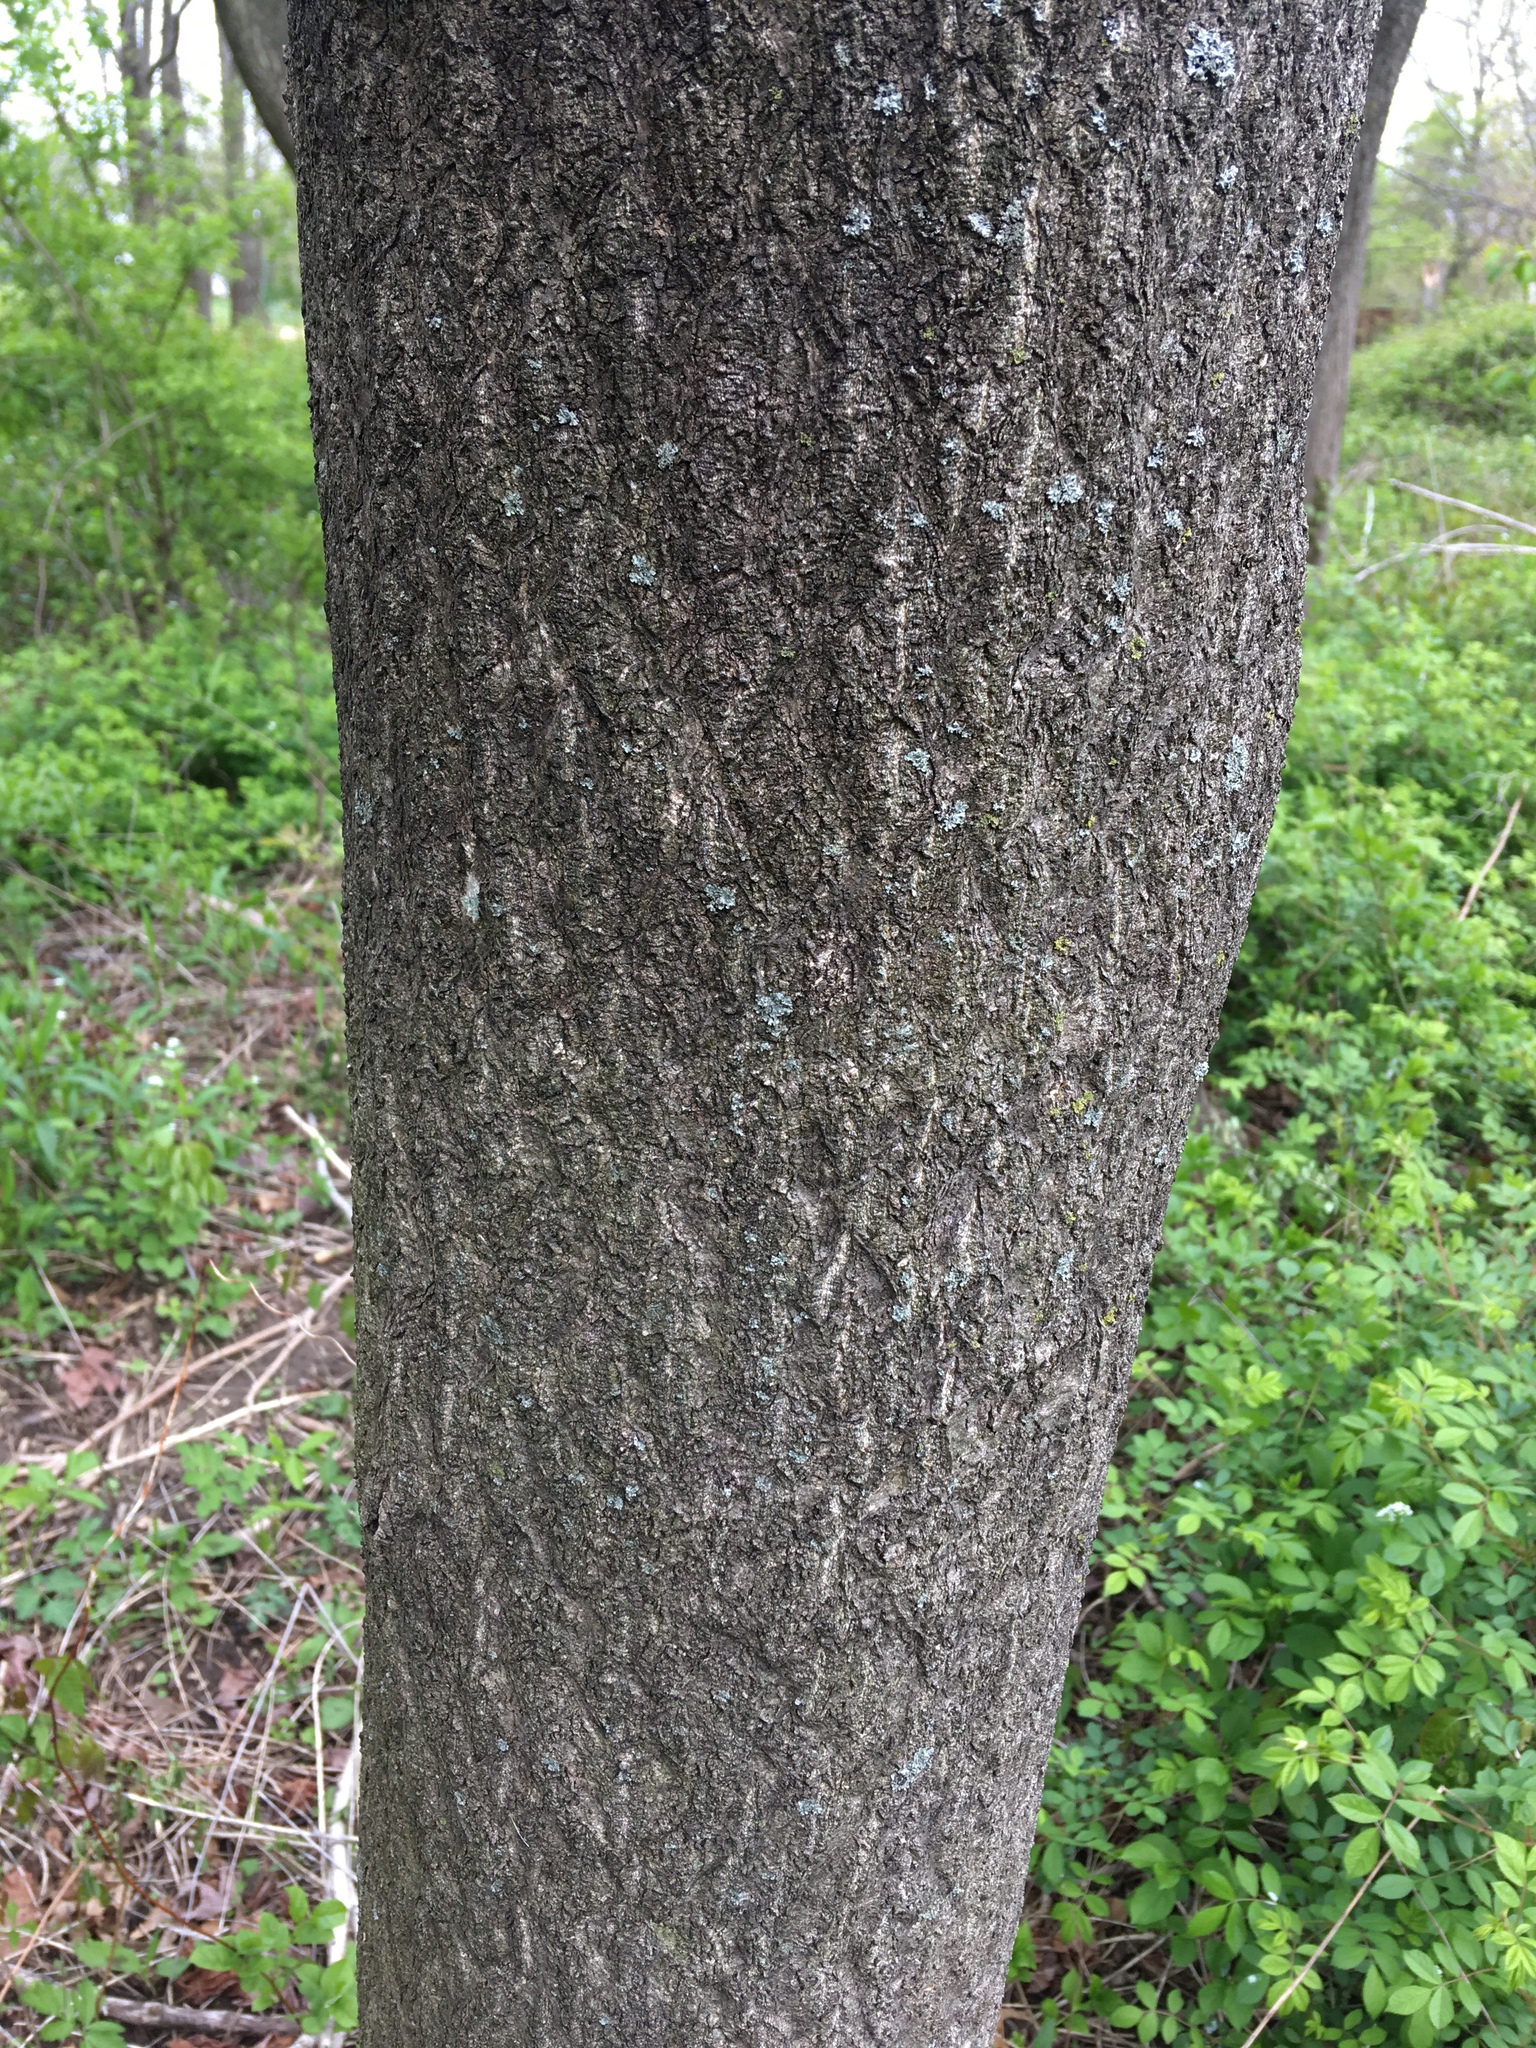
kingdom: Plantae
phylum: Tracheophyta
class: Magnoliopsida
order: Sapindales
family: Simaroubaceae
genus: Ailanthus
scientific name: Ailanthus altissima
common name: Tree-of-heaven
